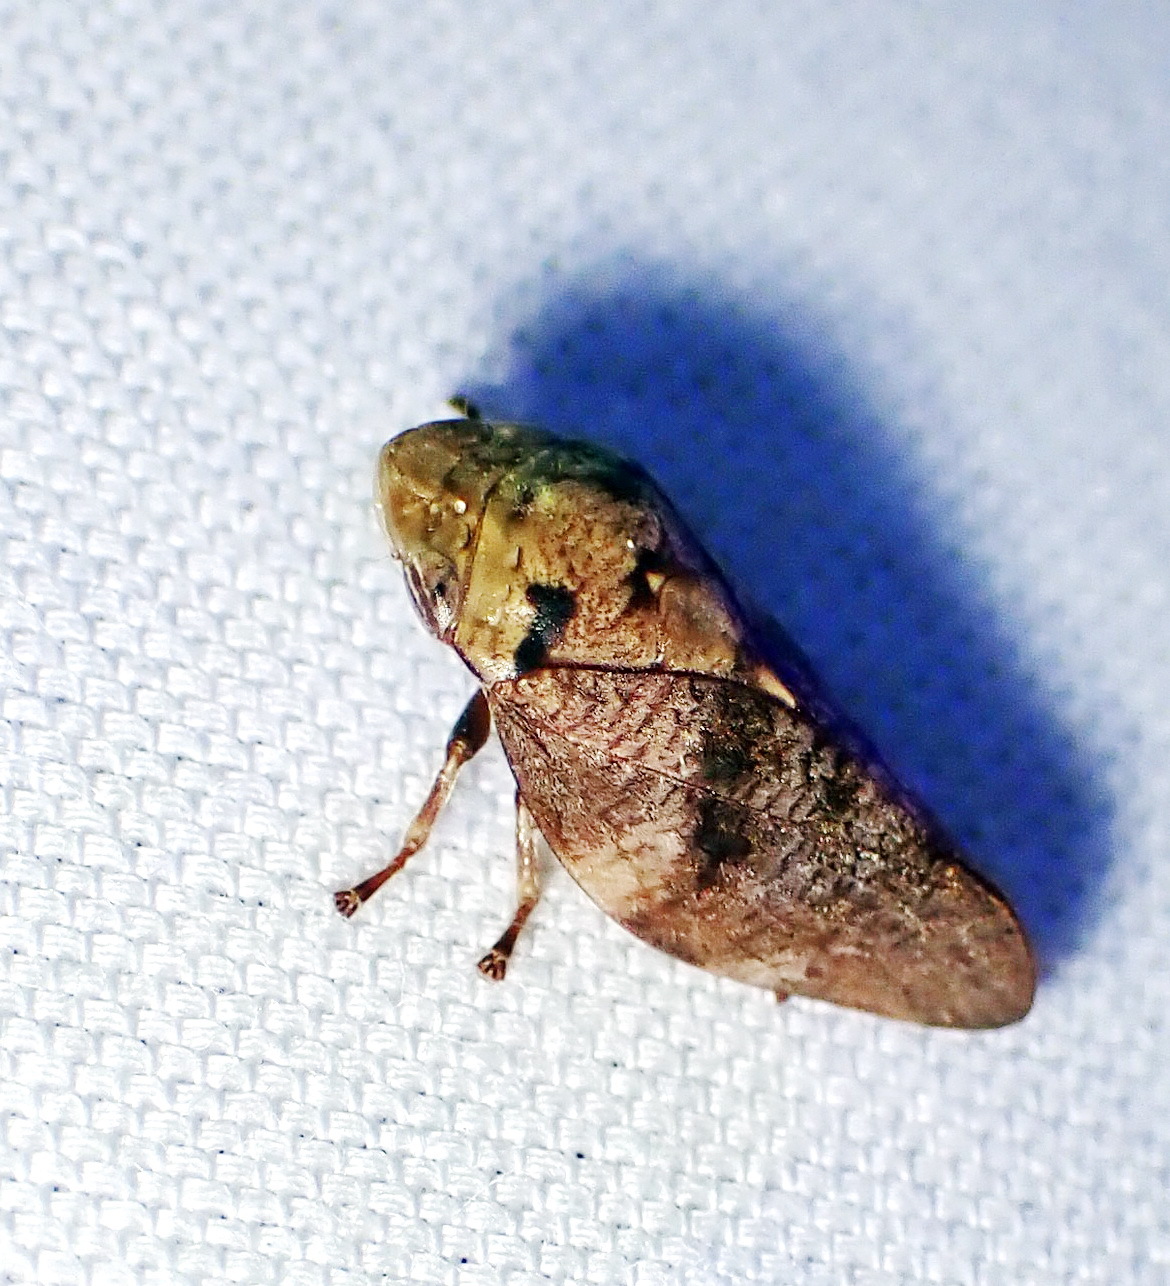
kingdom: Animalia
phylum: Arthropoda
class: Insecta
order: Hemiptera
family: Aphrophoridae
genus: Cephisus
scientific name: Cephisus brevipennis
